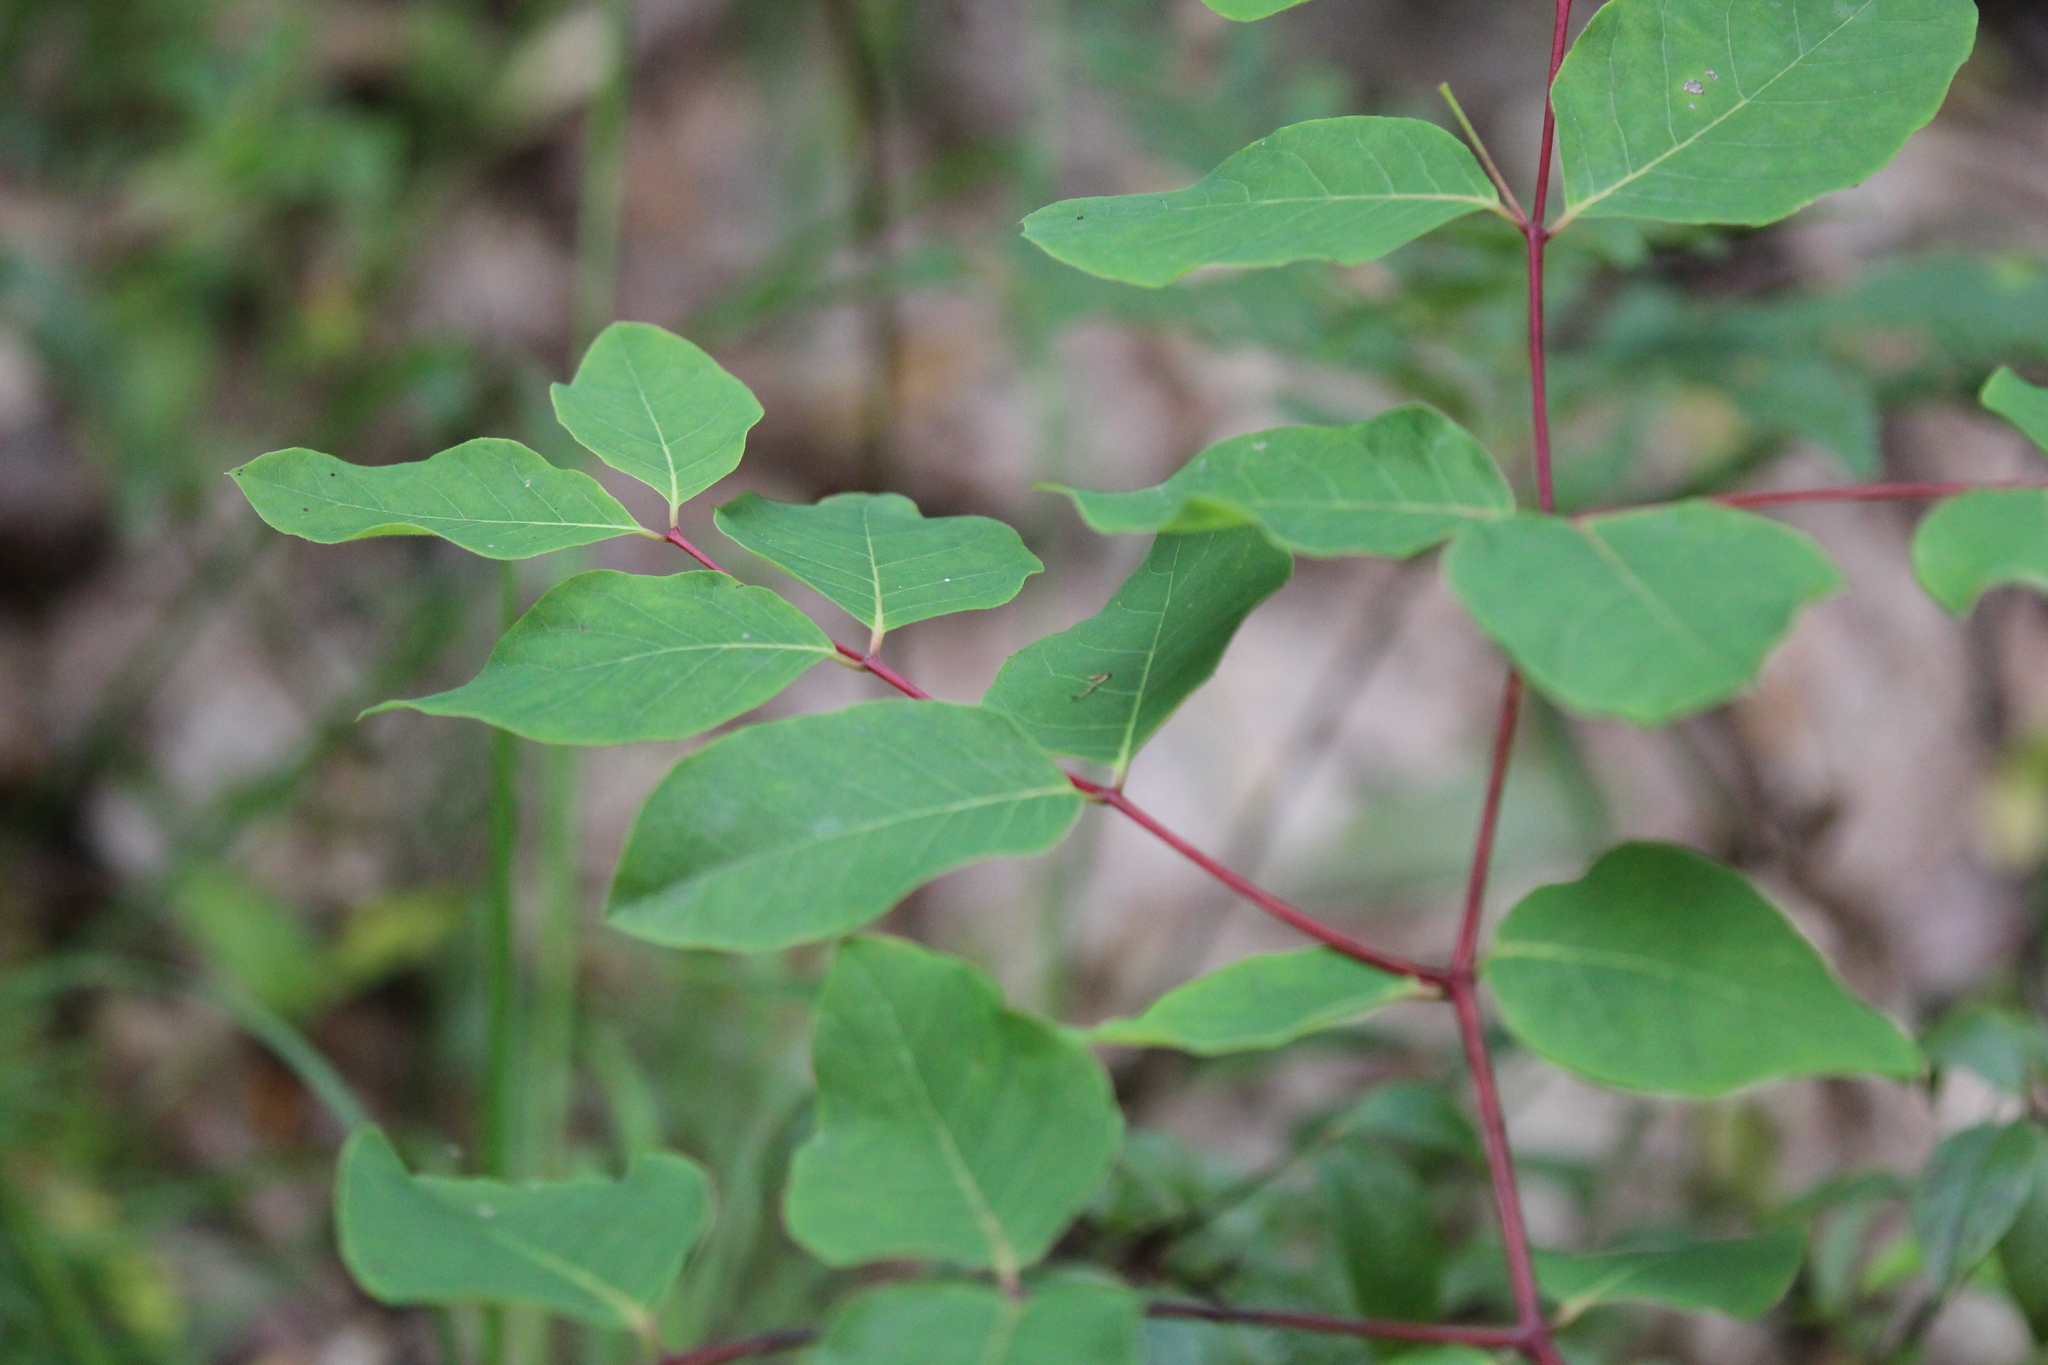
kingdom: Plantae
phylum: Tracheophyta
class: Magnoliopsida
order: Gentianales
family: Apocynaceae
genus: Apocynum
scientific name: Apocynum androsaemifolium
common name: Spreading dogbane
